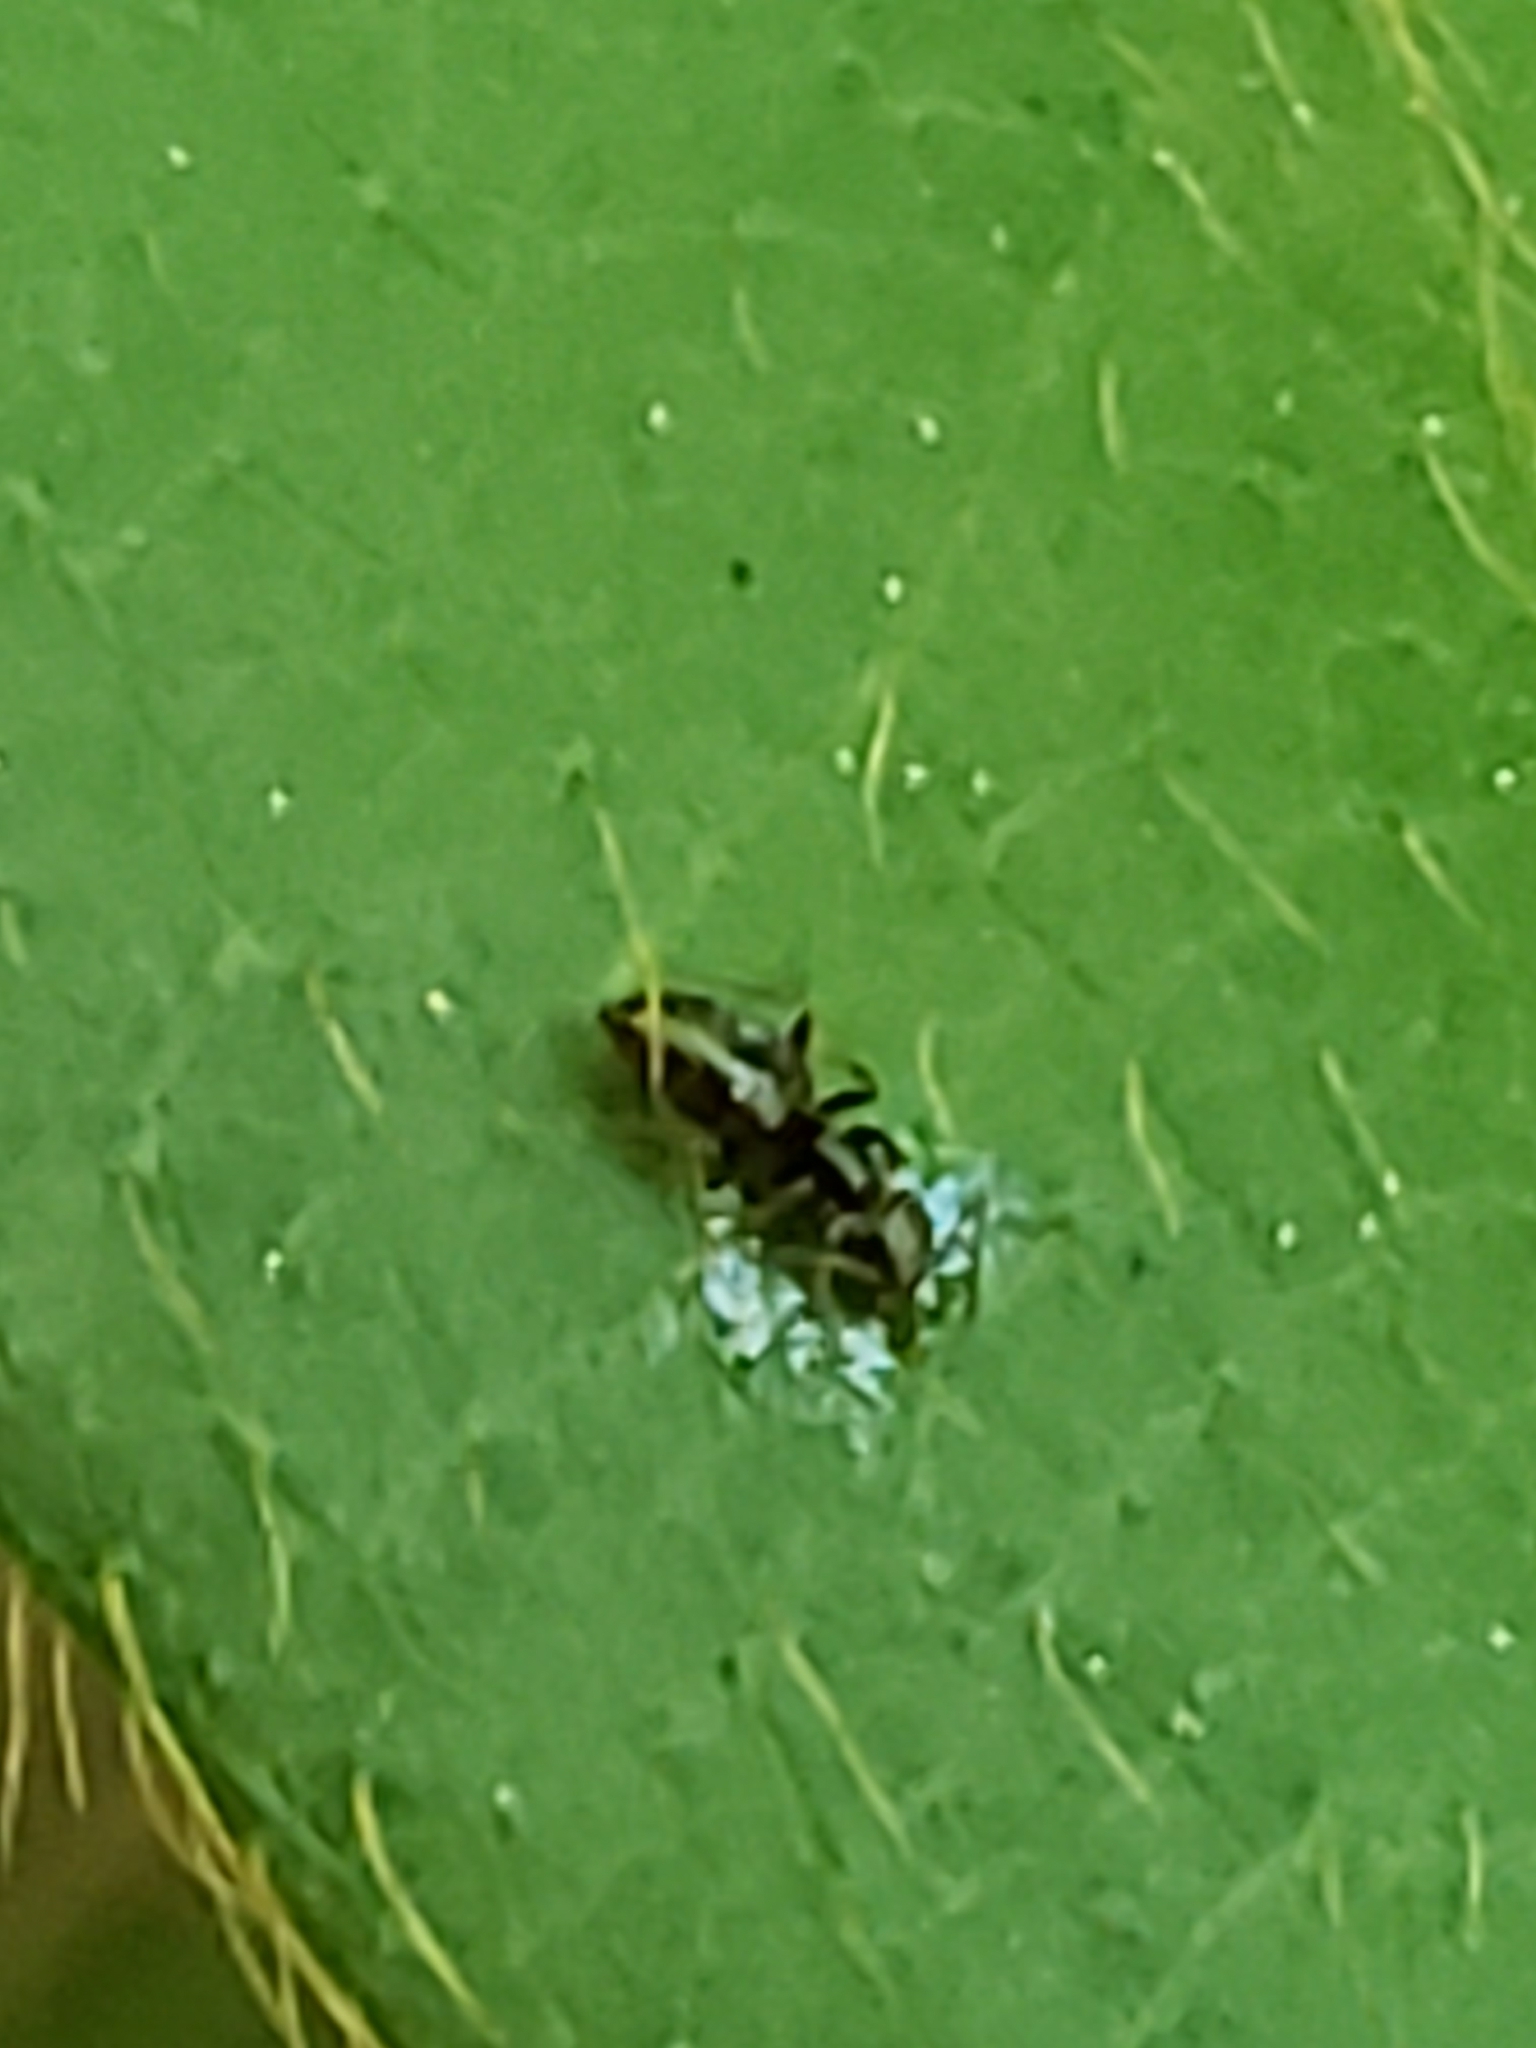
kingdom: Animalia
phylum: Arthropoda
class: Insecta
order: Hymenoptera
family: Formicidae
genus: Brachymyrmex
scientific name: Brachymyrmex patagonicus
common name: Dark rover ant
